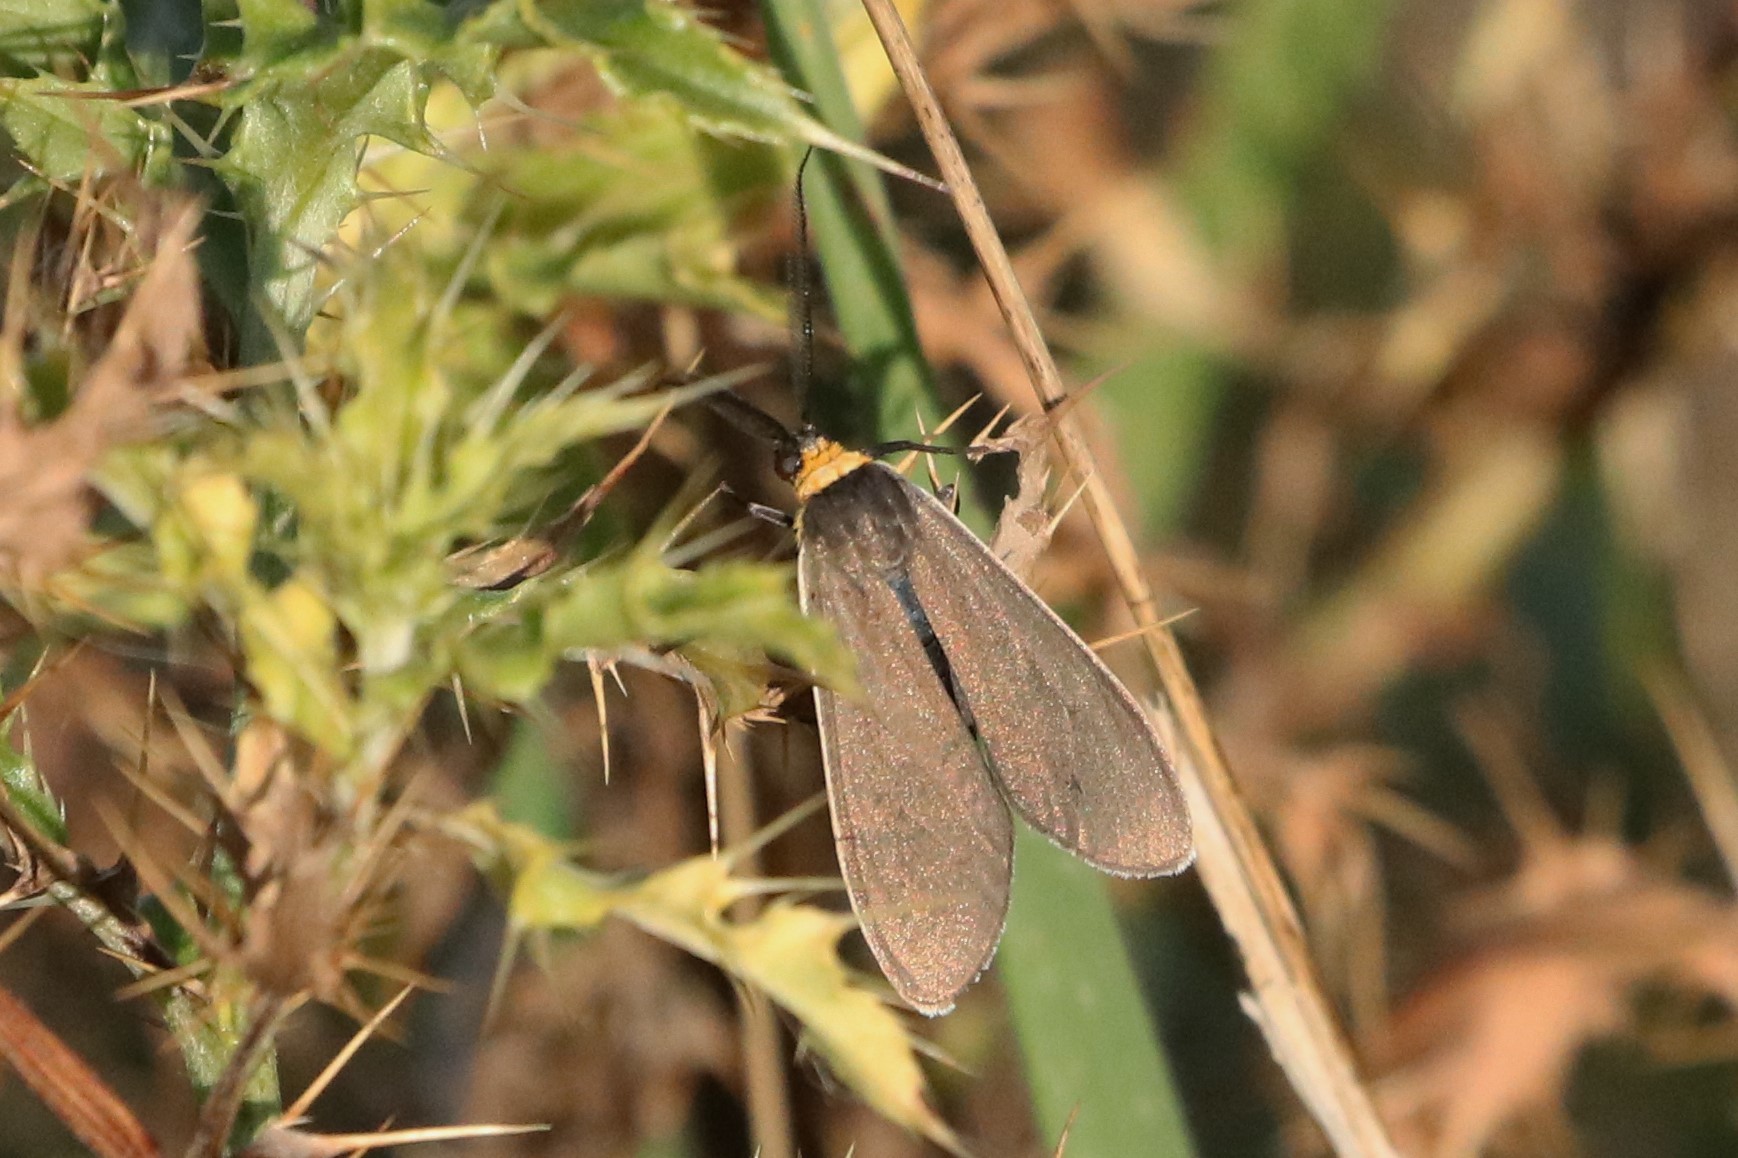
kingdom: Animalia
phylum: Arthropoda
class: Insecta
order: Lepidoptera
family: Erebidae
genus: Cisseps
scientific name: Cisseps fulvicollis
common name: Yellow-collared scape moth
